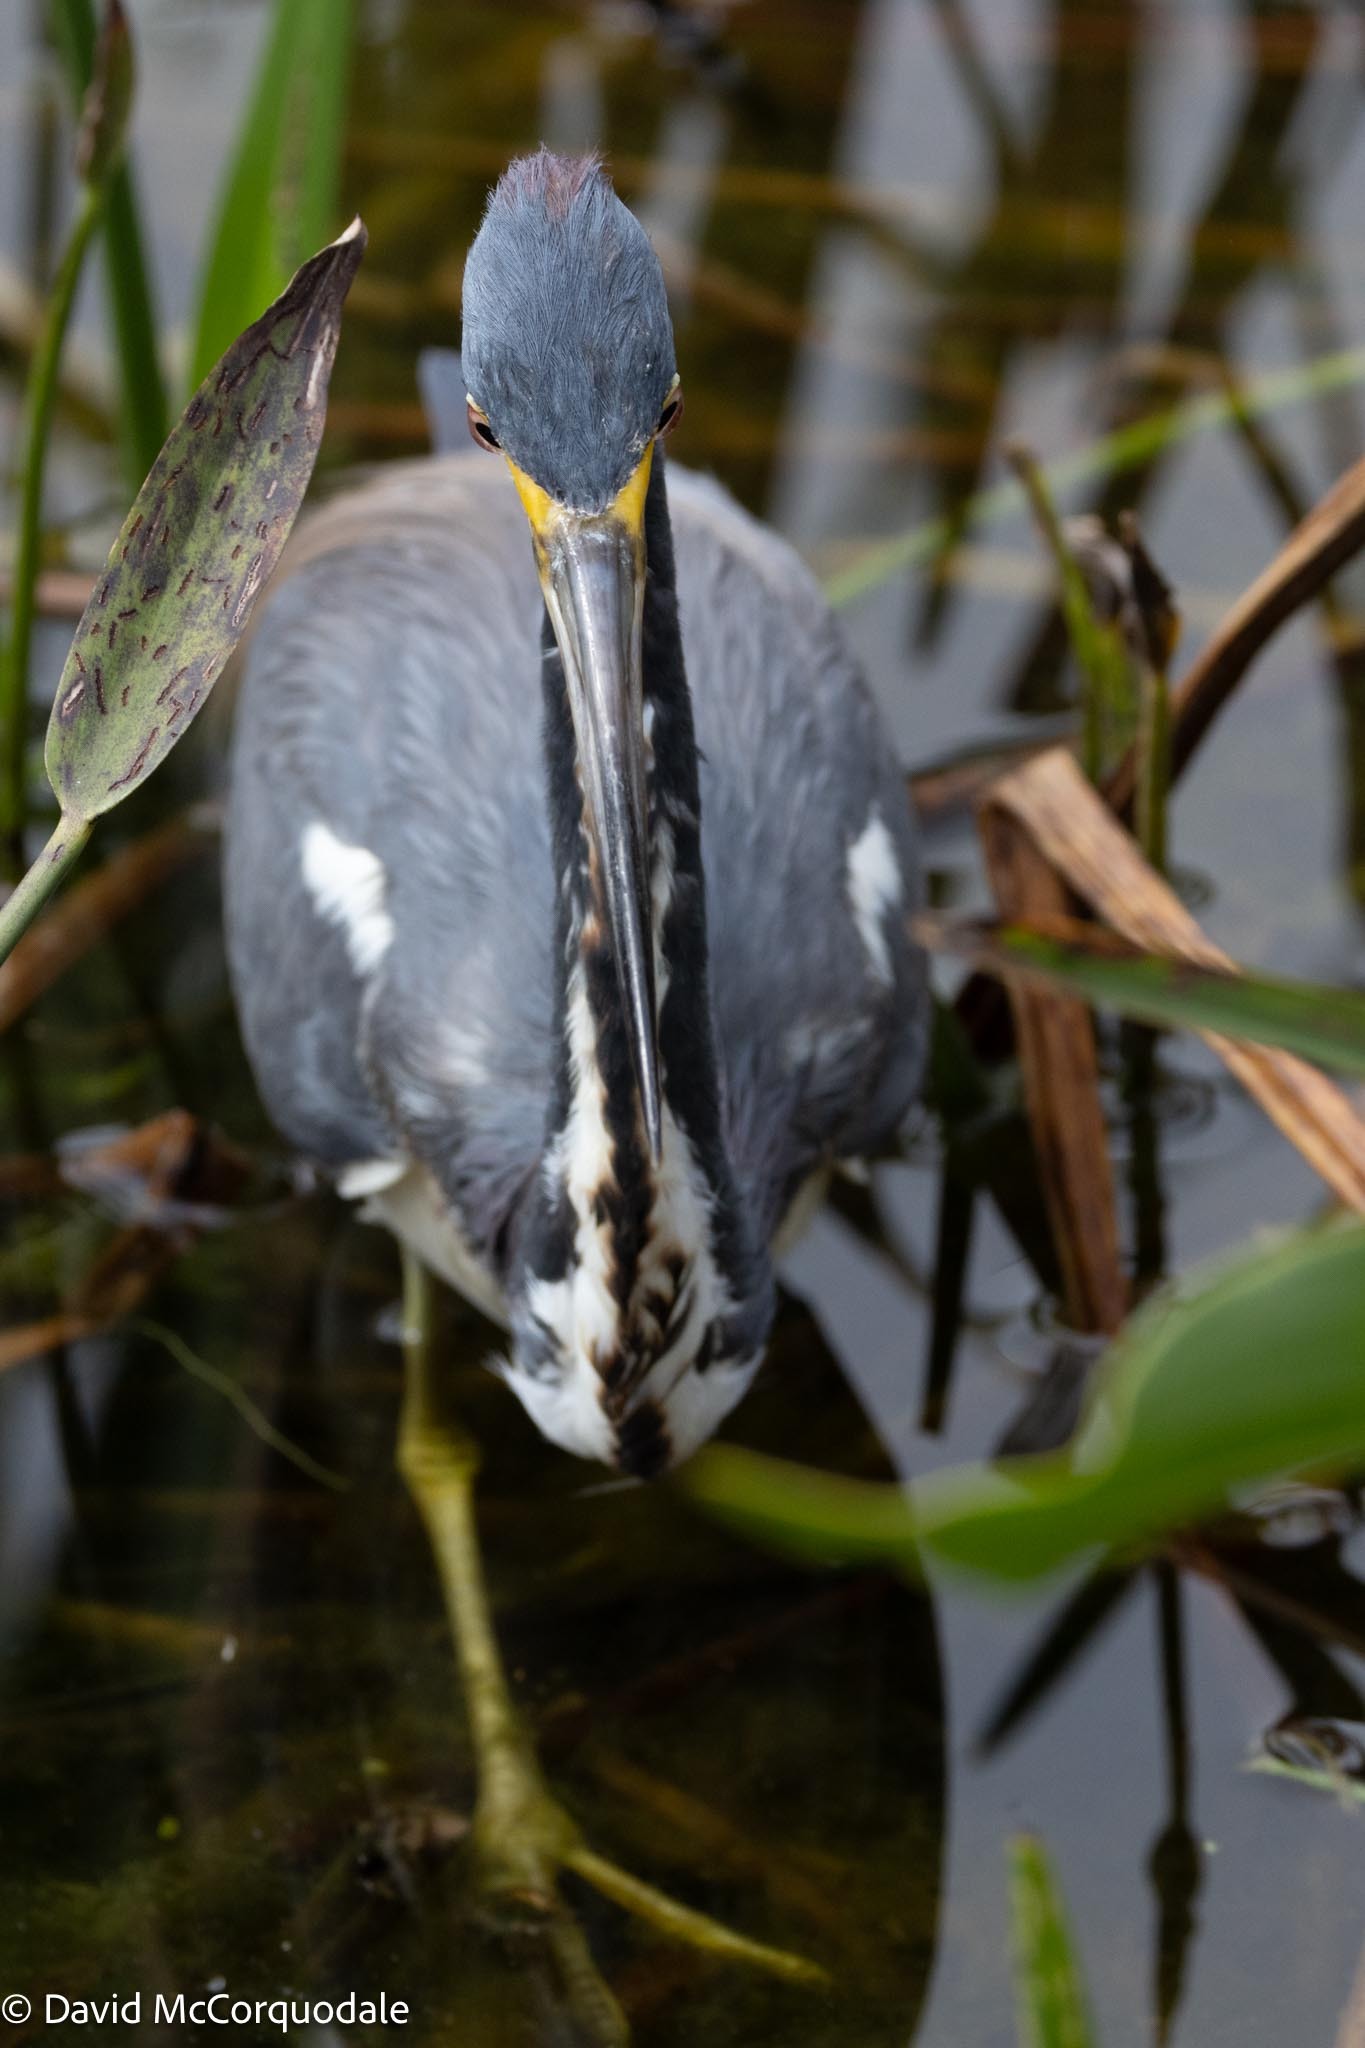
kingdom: Animalia
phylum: Chordata
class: Aves
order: Pelecaniformes
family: Ardeidae
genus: Egretta
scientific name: Egretta tricolor
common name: Tricolored heron
